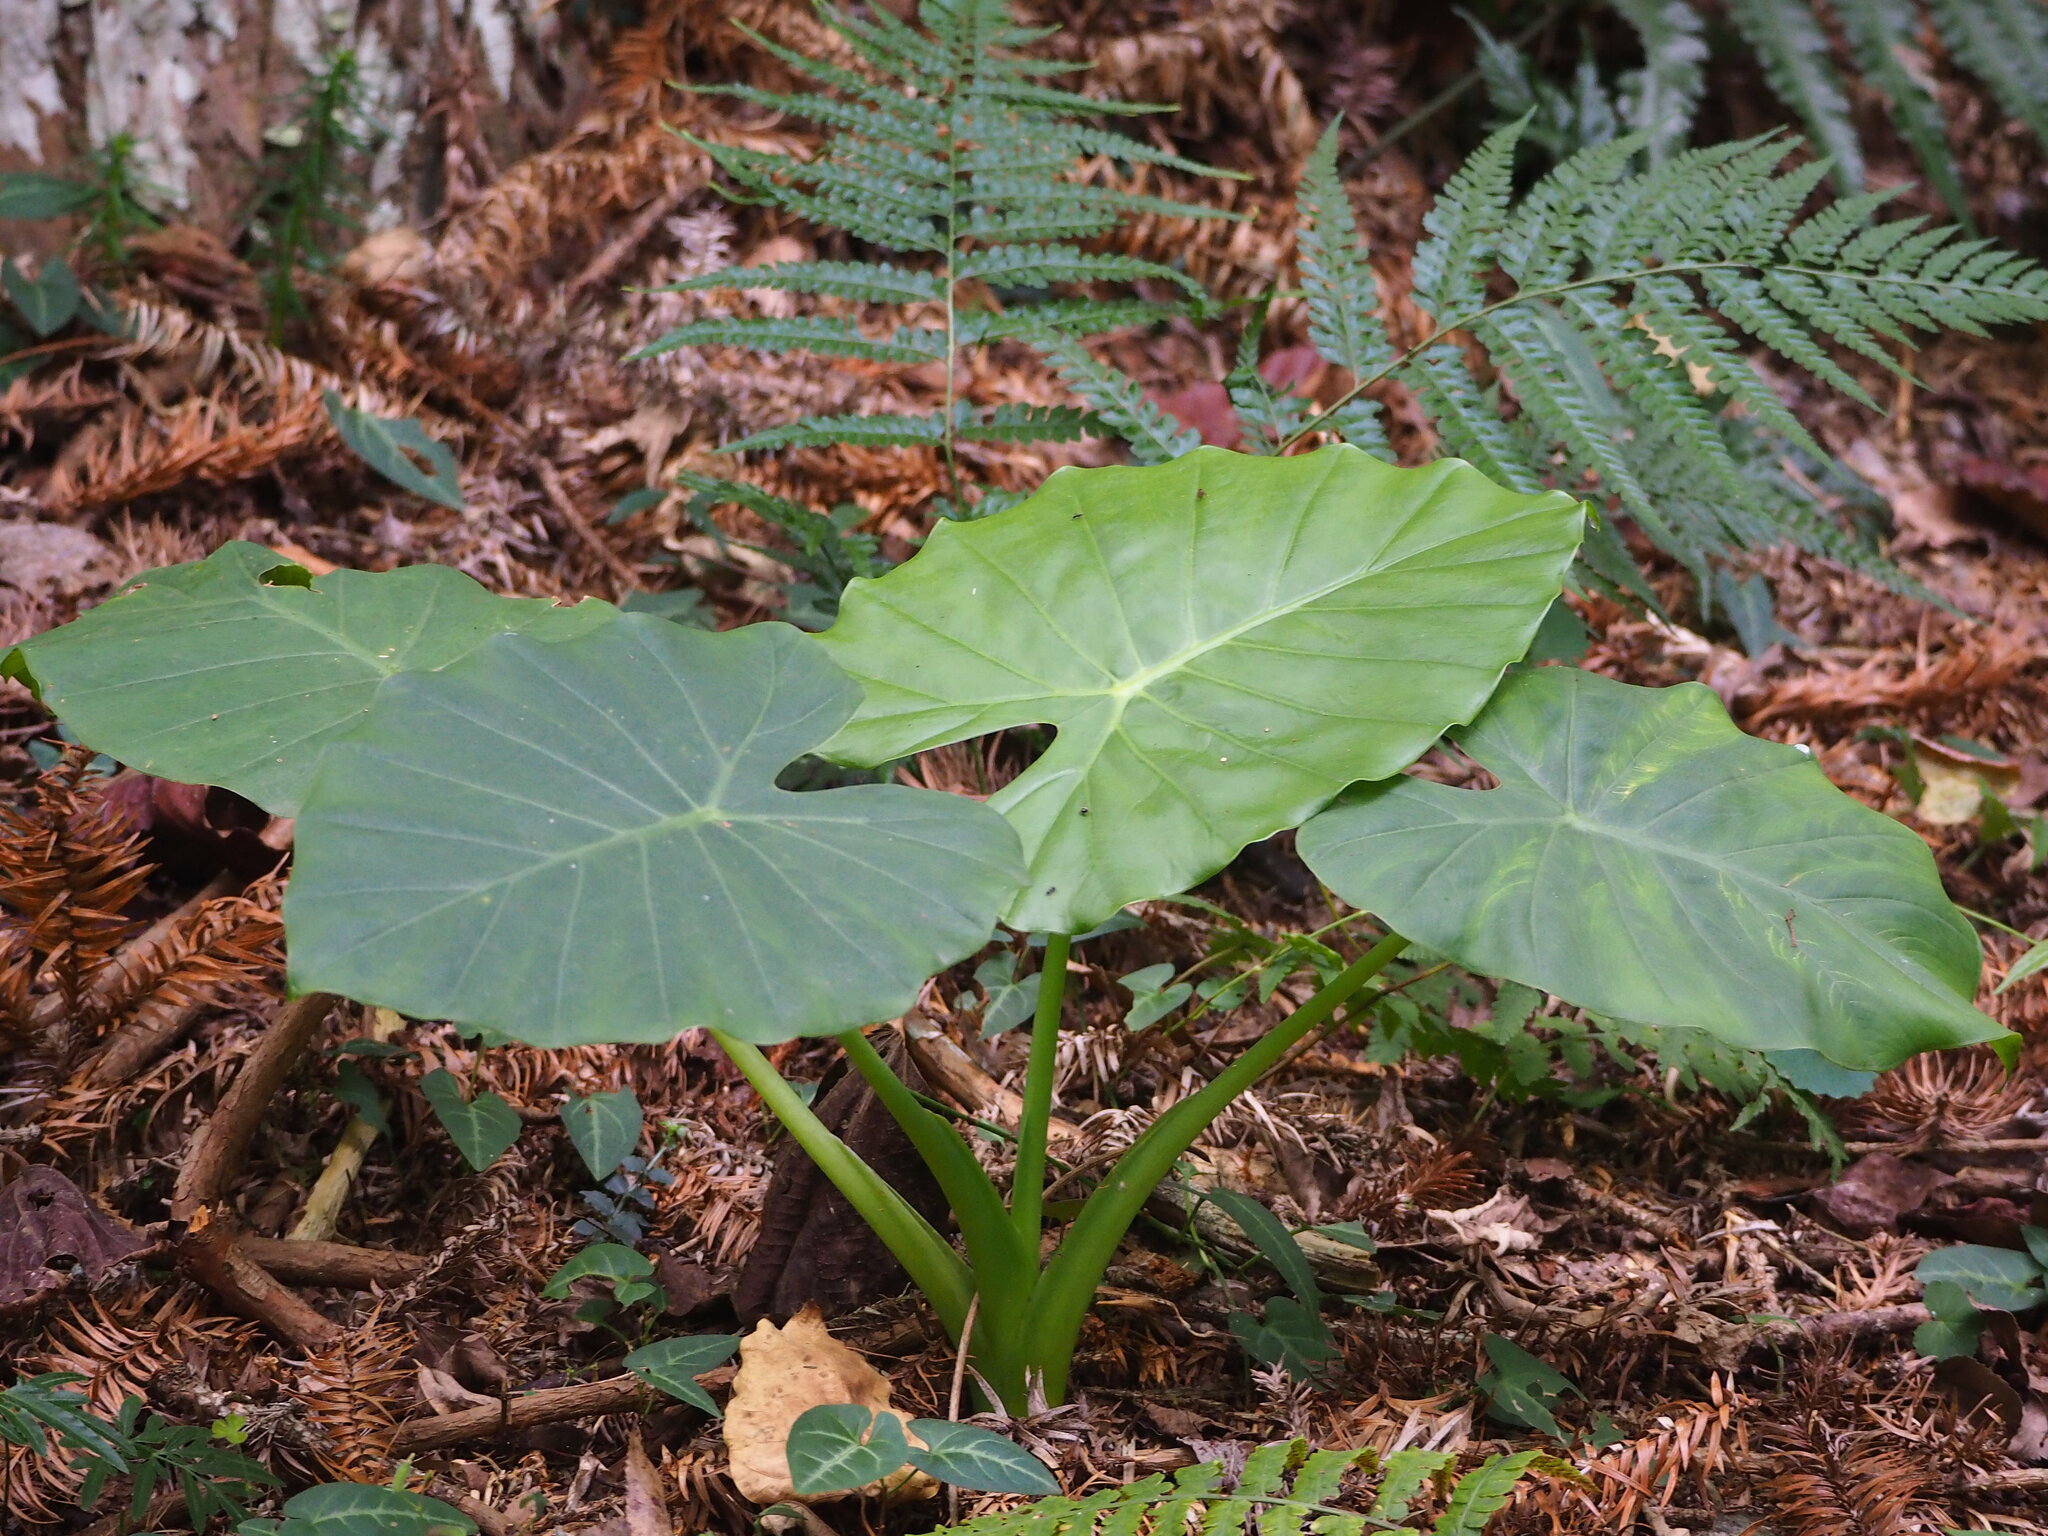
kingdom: Plantae
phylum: Tracheophyta
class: Liliopsida
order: Alismatales
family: Araceae
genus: Alocasia
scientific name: Alocasia odora
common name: Asian taro
